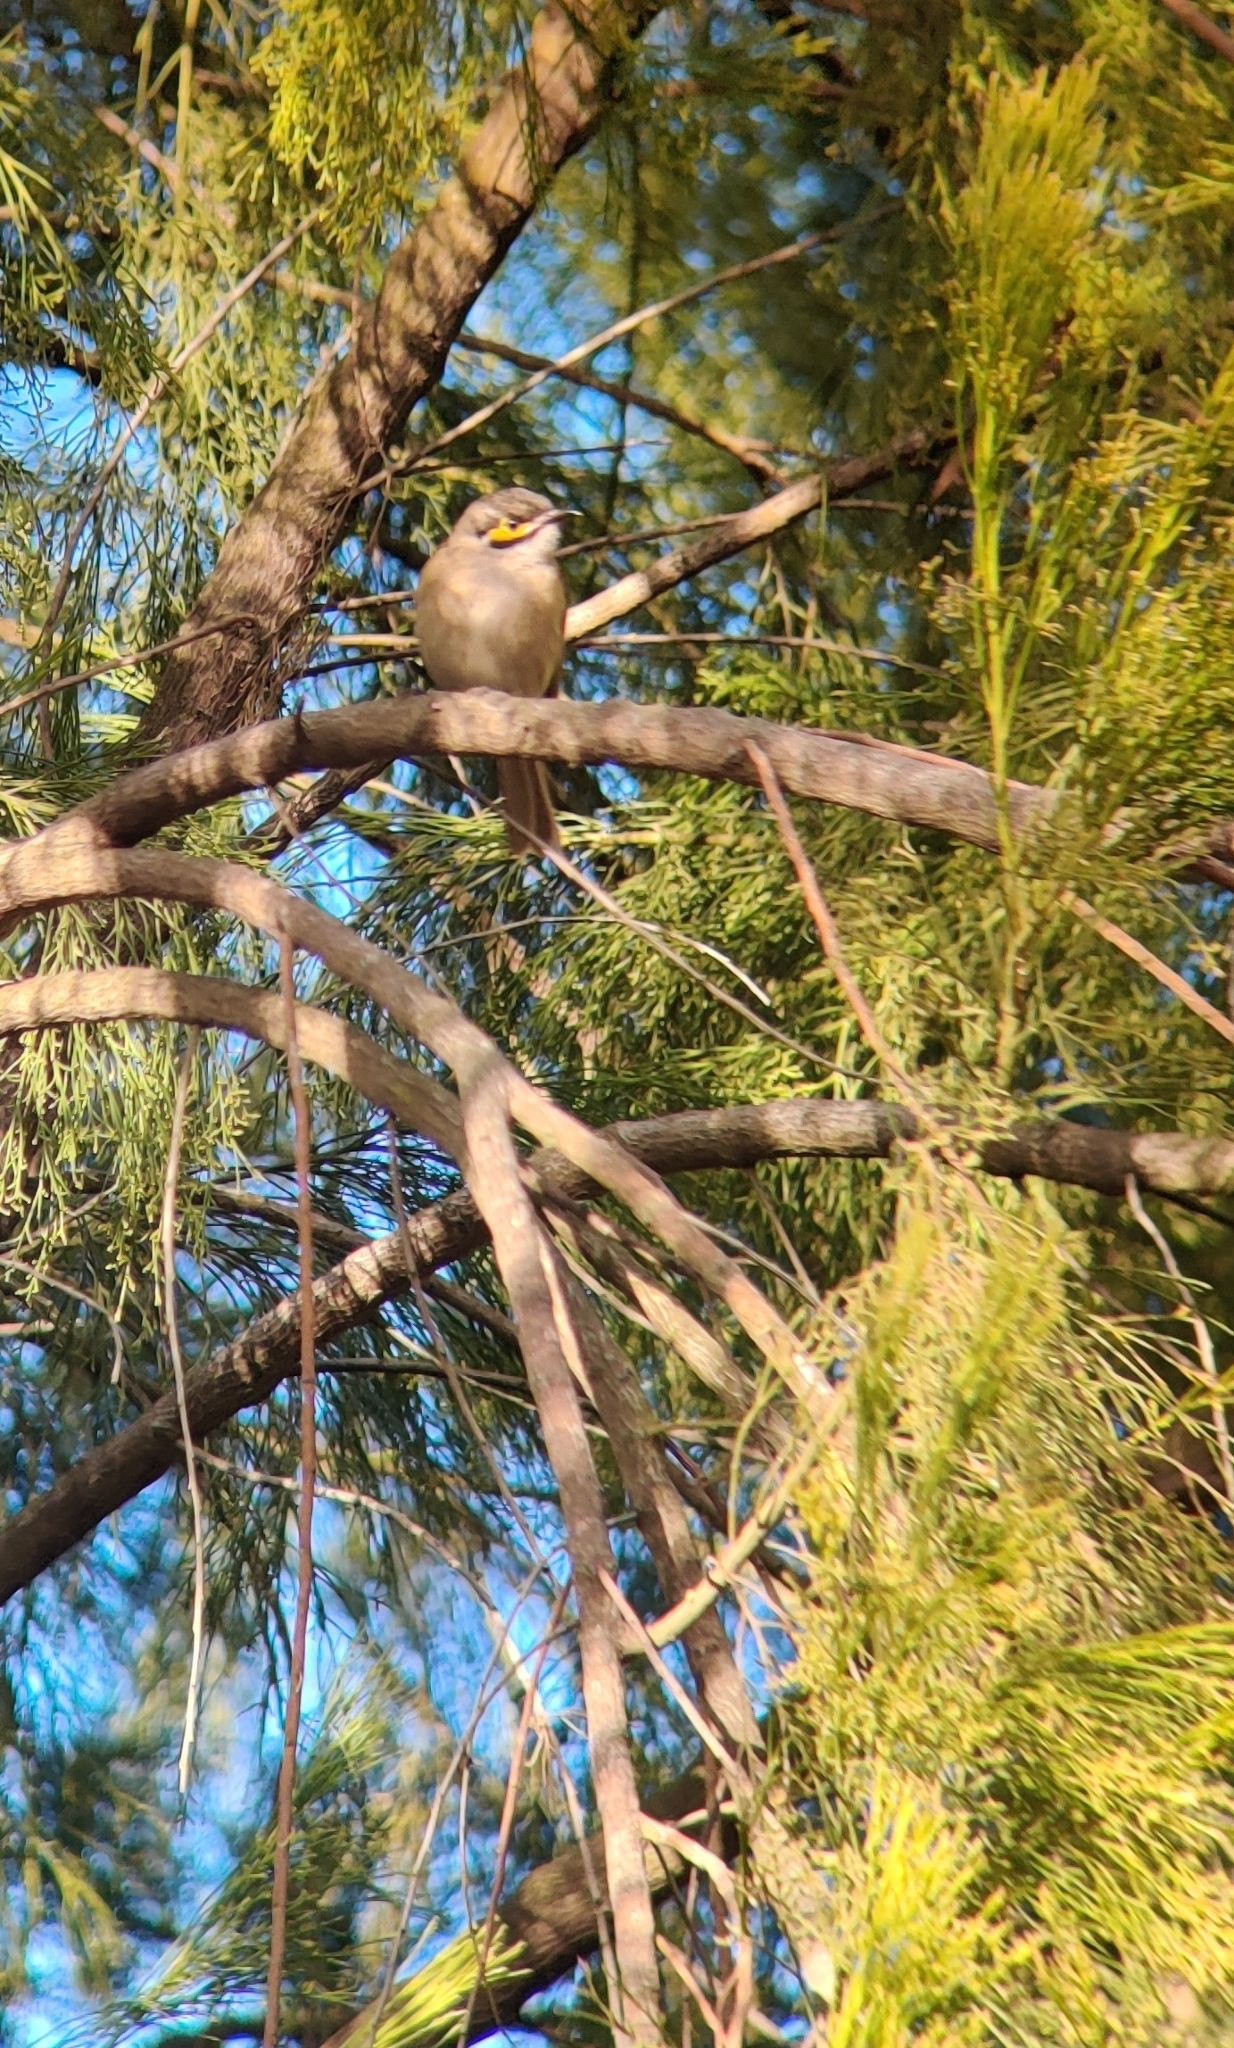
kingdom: Animalia
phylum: Chordata
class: Aves
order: Passeriformes
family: Meliphagidae
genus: Caligavis
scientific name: Caligavis chrysops
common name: Yellow-faced honeyeater
